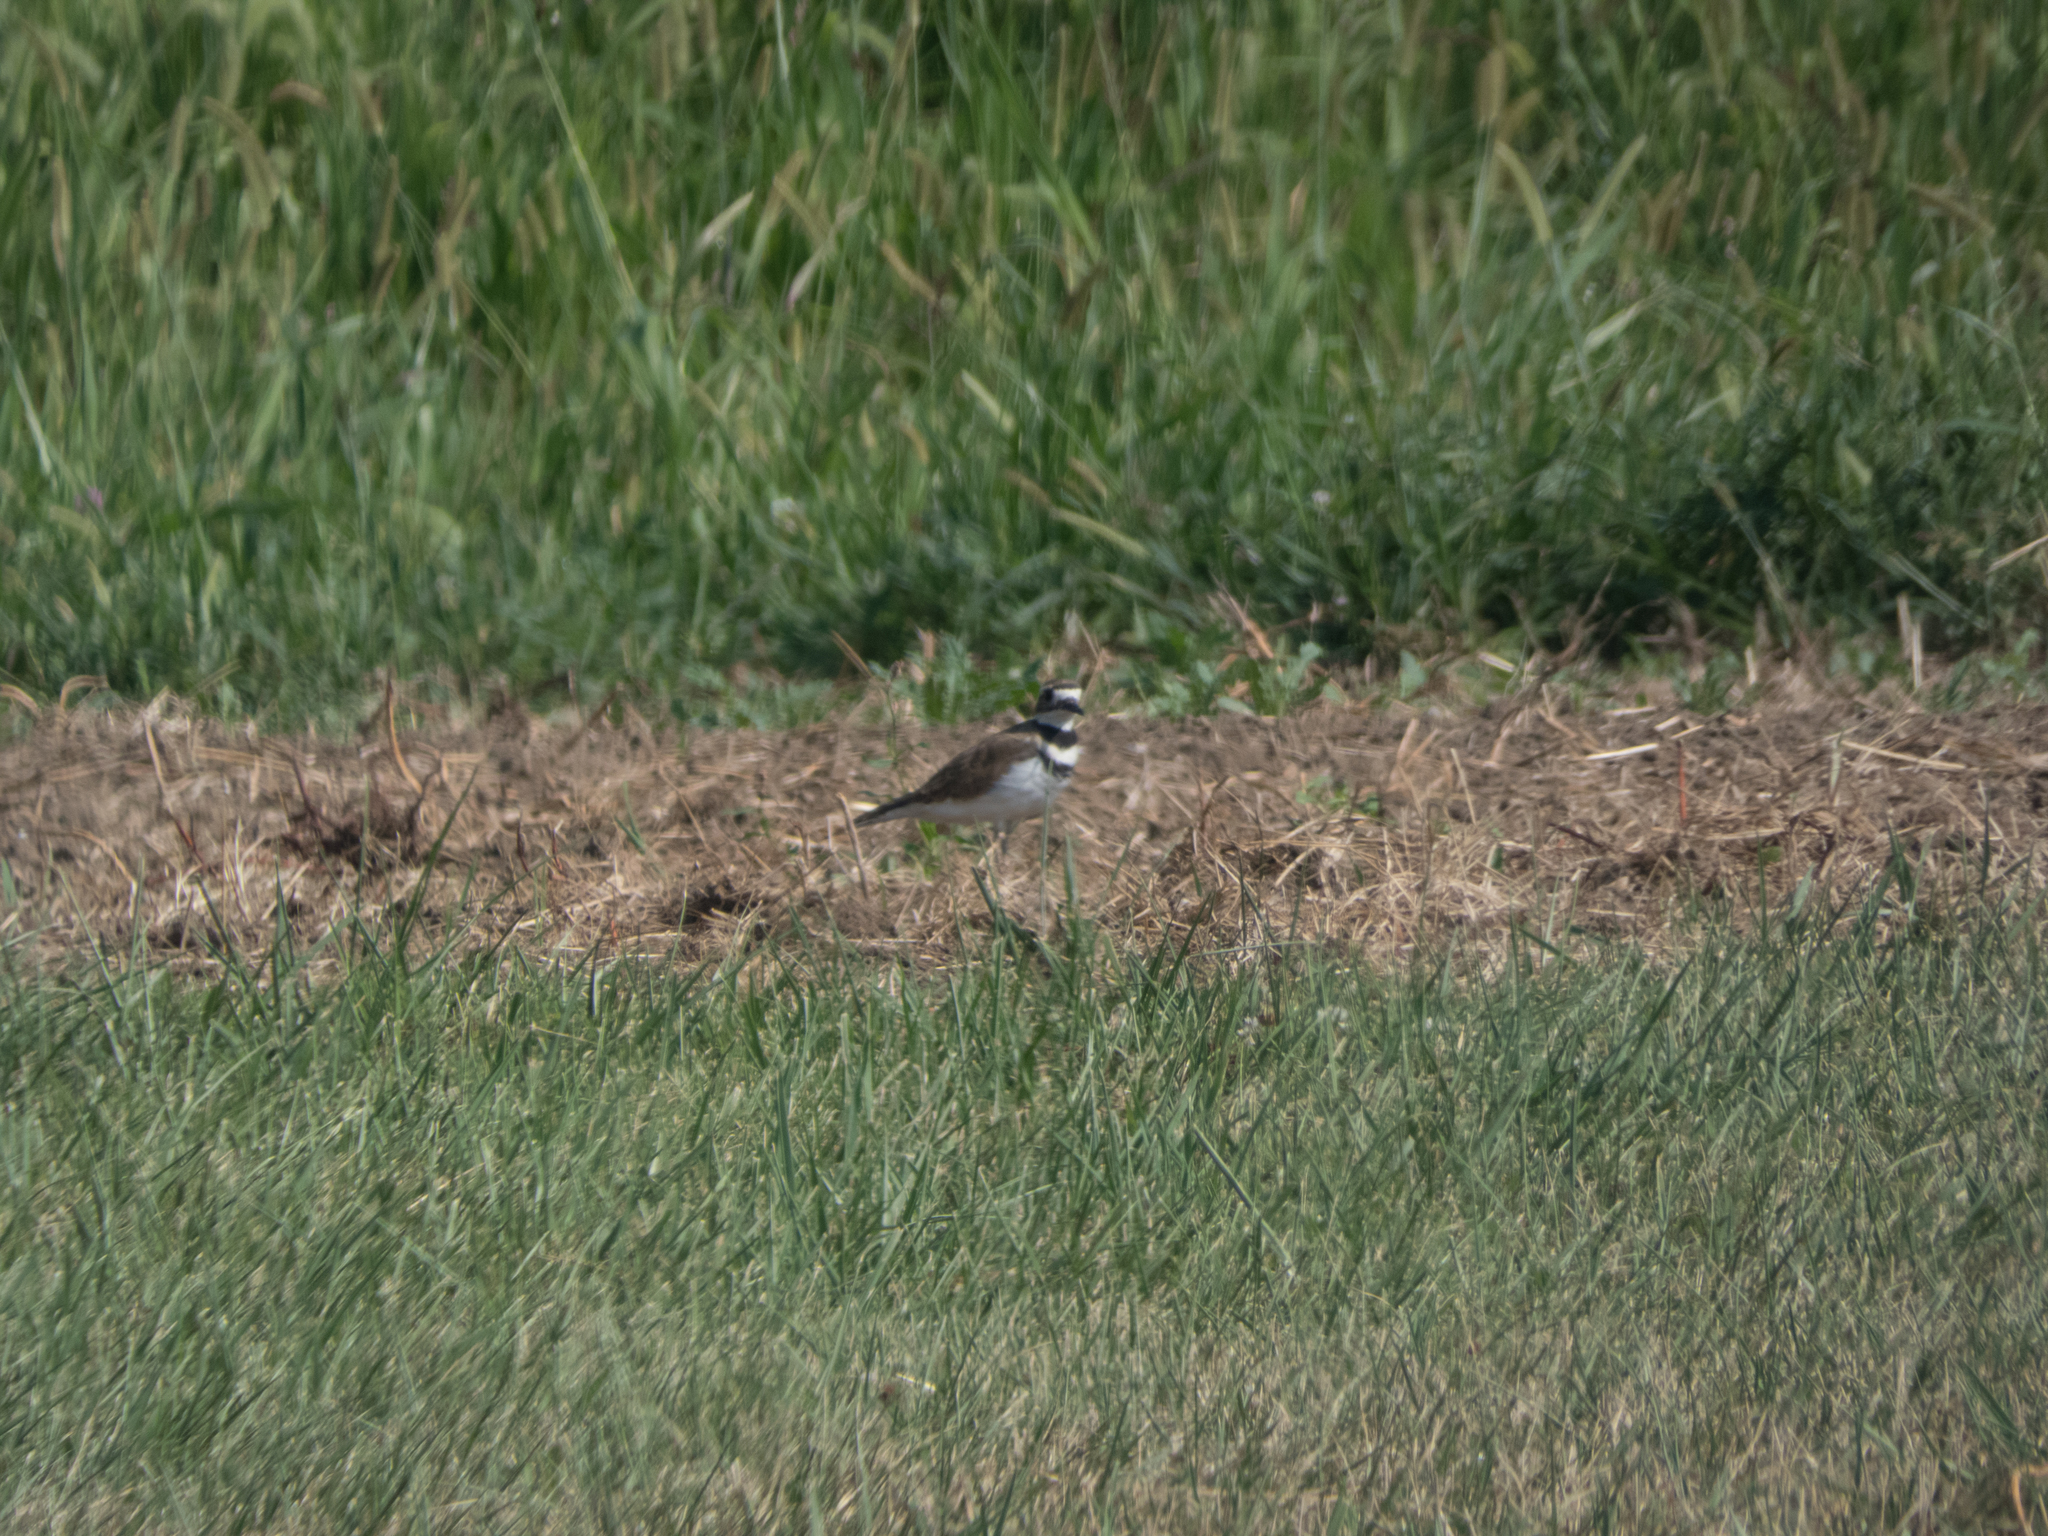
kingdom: Animalia
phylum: Chordata
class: Aves
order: Charadriiformes
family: Charadriidae
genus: Charadrius
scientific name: Charadrius vociferus
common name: Killdeer
